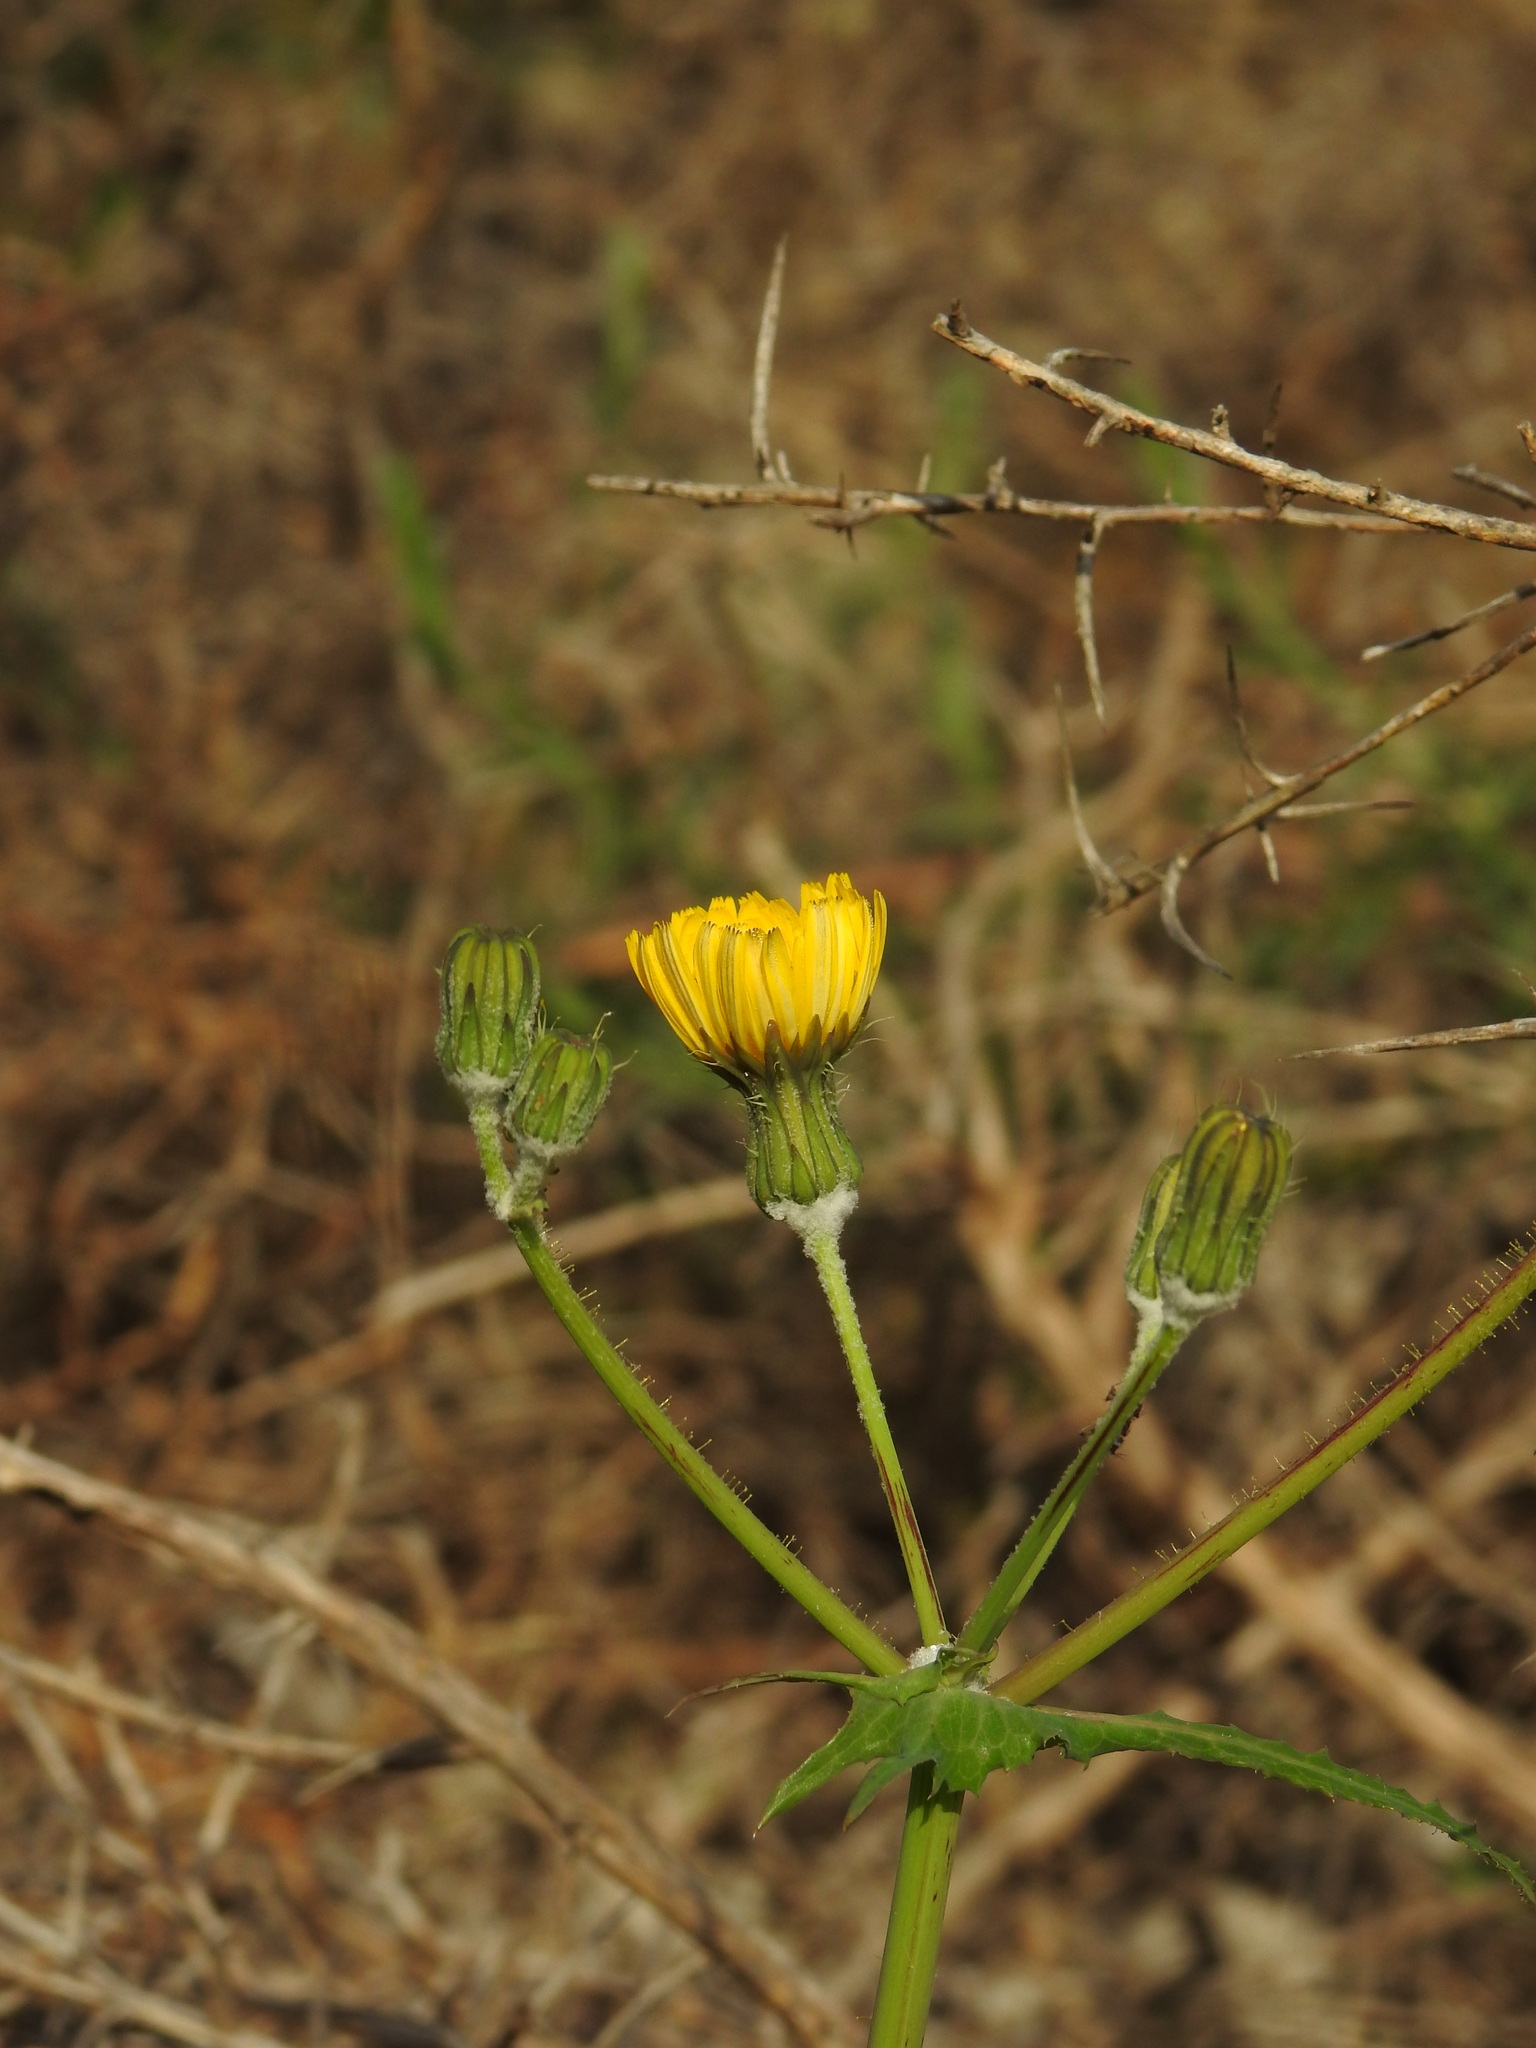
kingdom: Plantae
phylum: Tracheophyta
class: Magnoliopsida
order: Asterales
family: Asteraceae
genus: Sonchus
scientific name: Sonchus tenerrimus
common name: Clammy sowthistle
